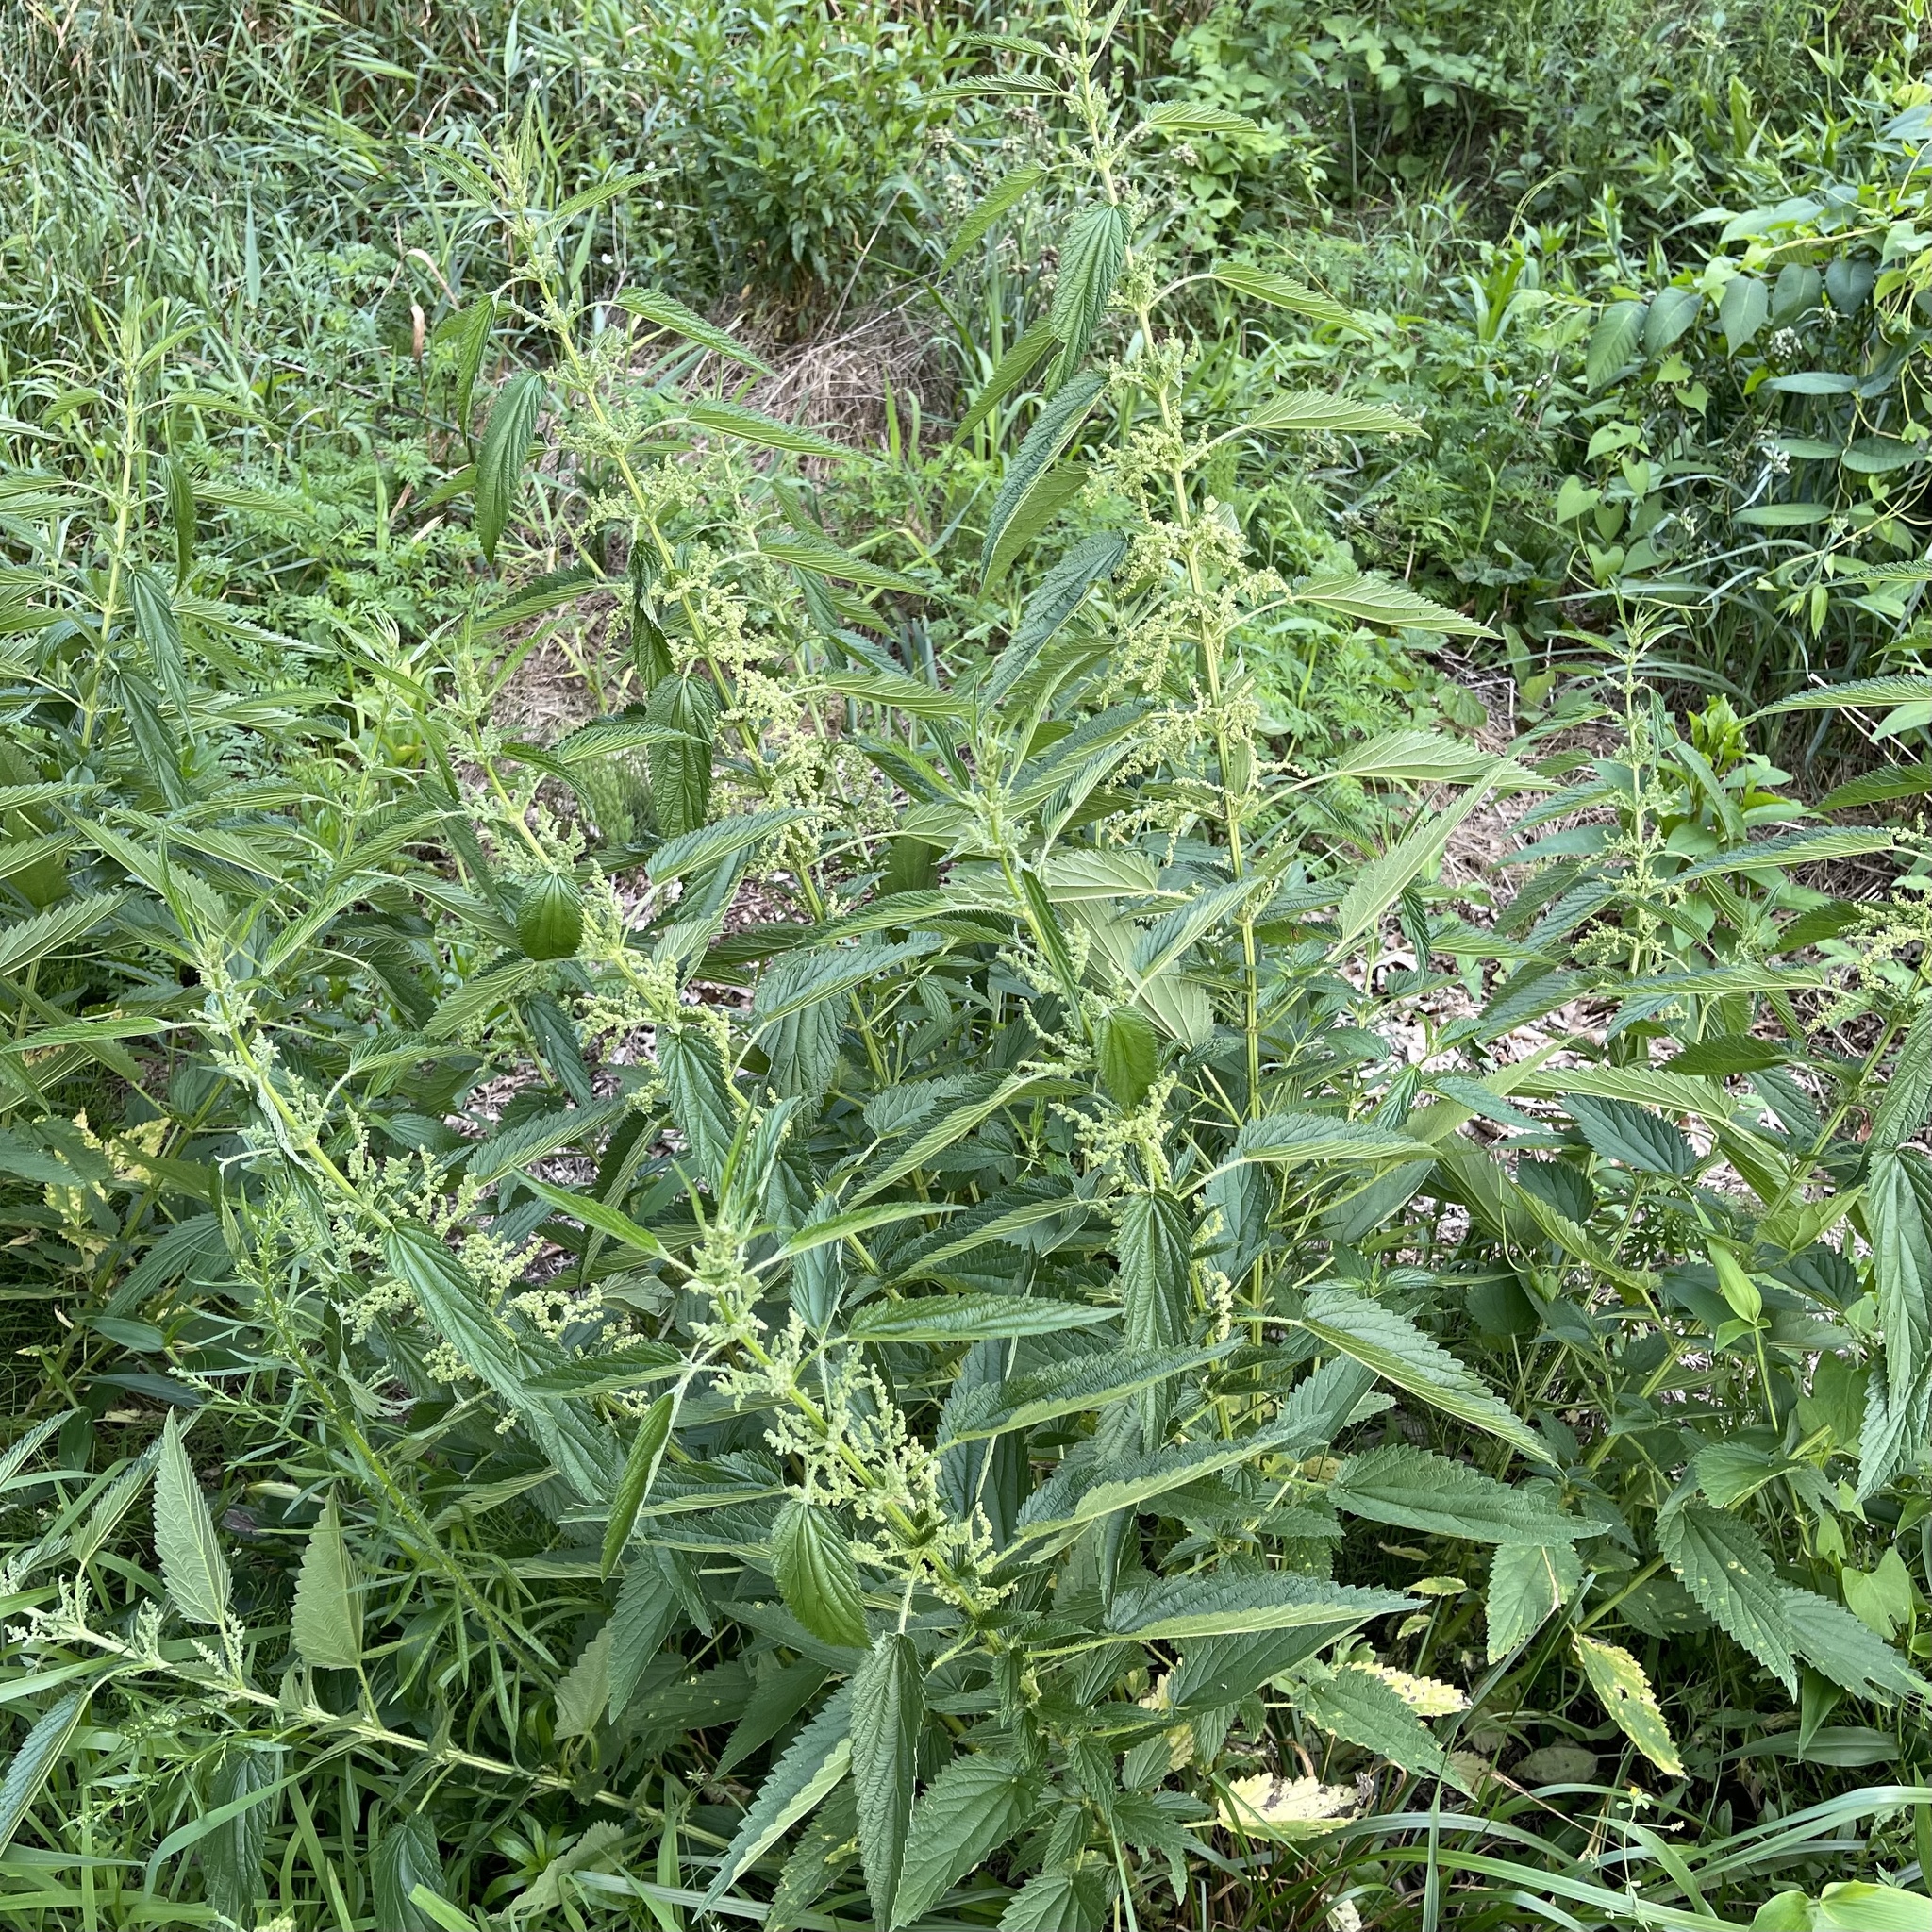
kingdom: Plantae
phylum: Tracheophyta
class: Magnoliopsida
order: Rosales
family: Urticaceae
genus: Urtica
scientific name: Urtica dioica
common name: Common nettle
